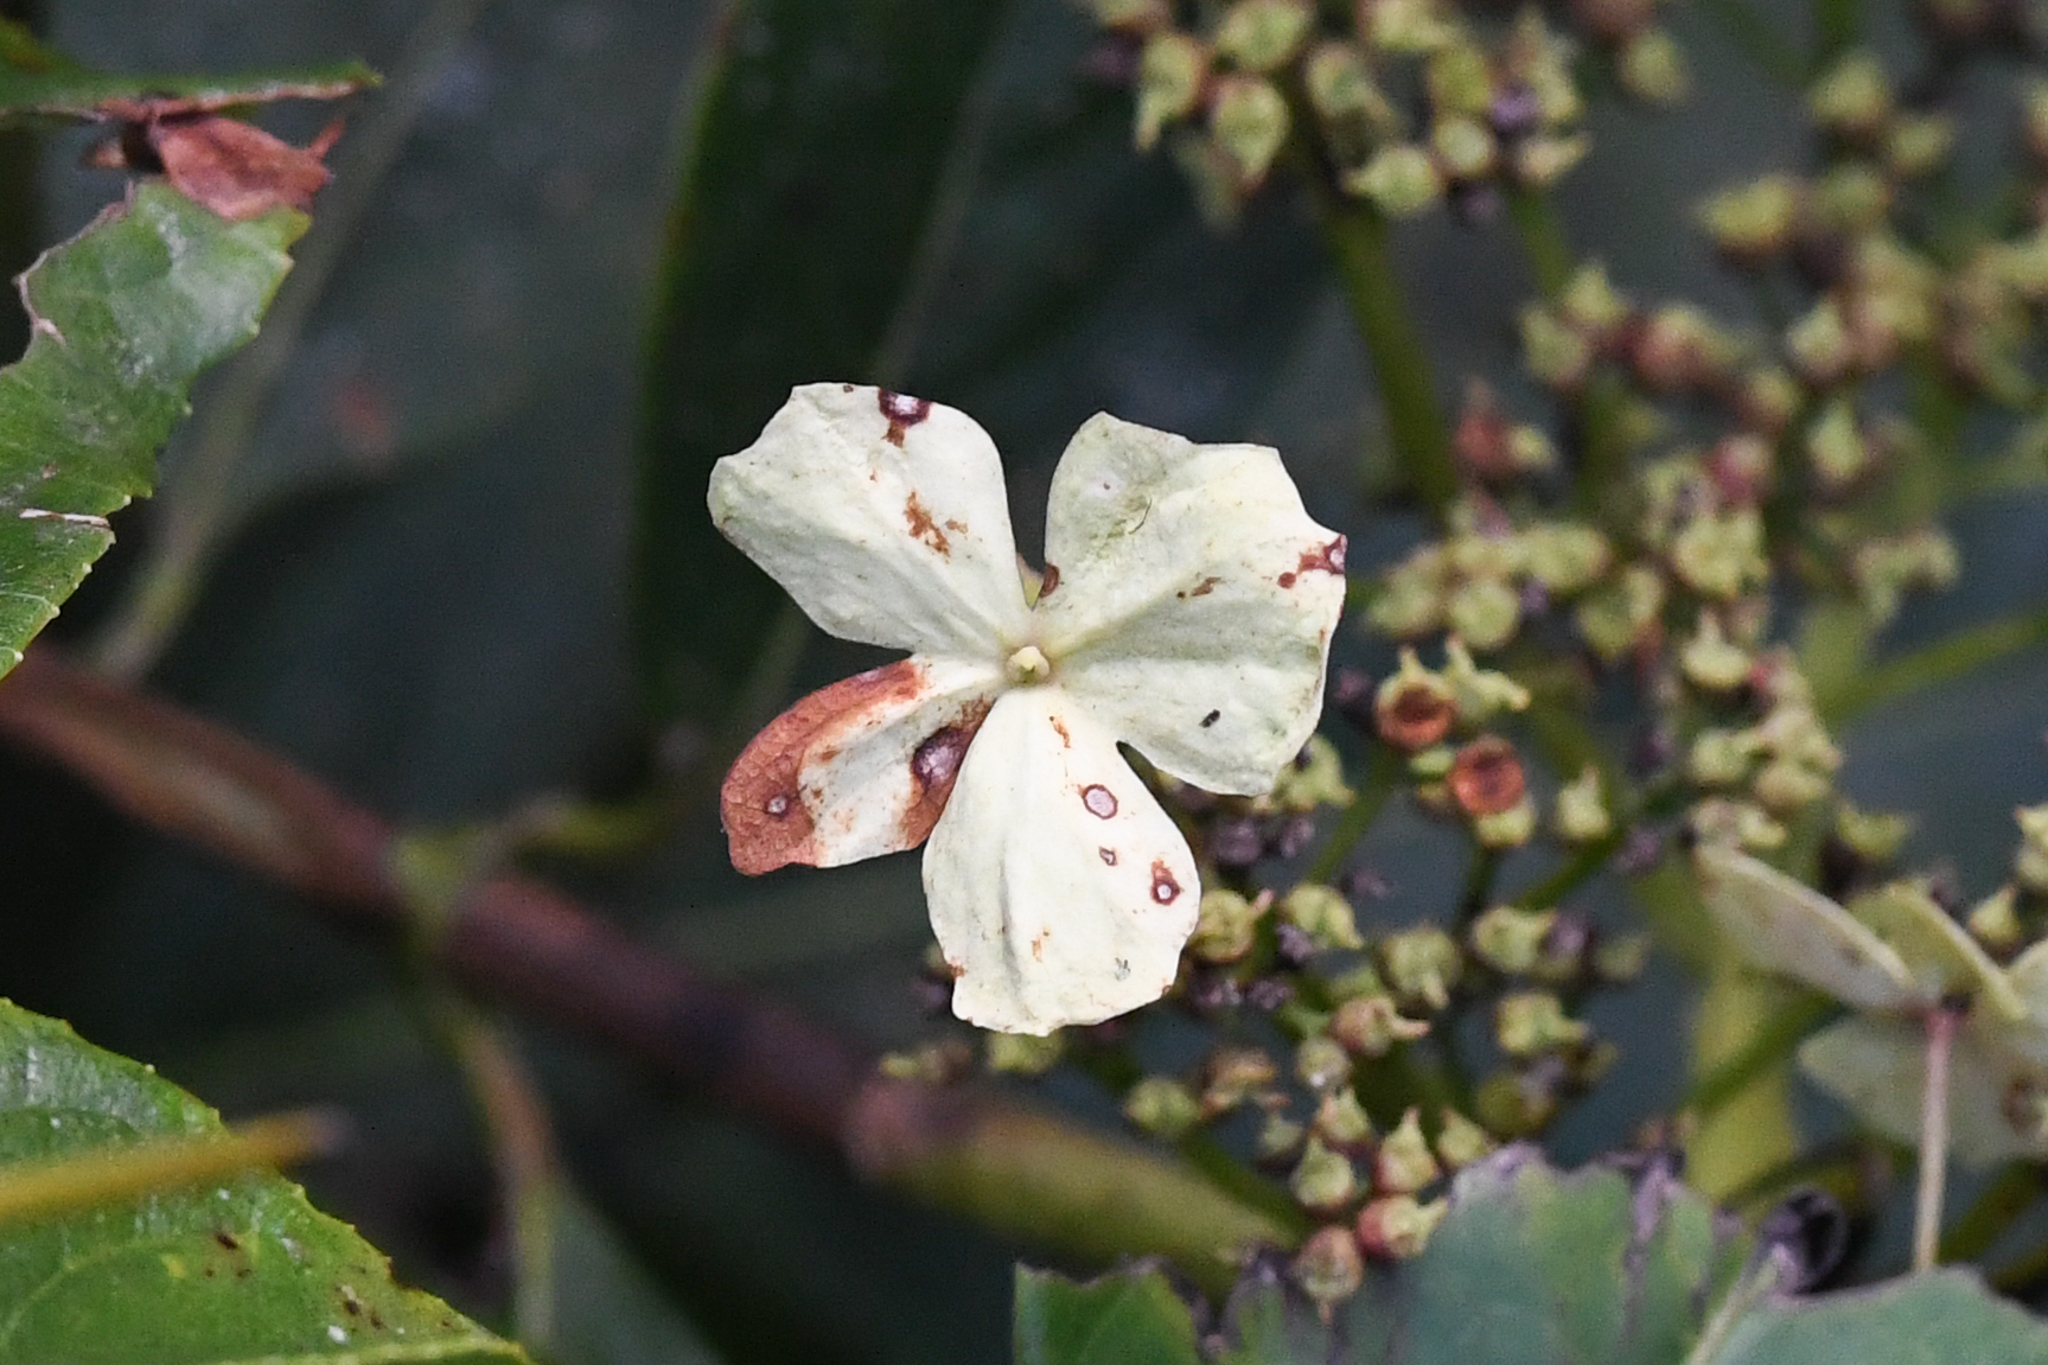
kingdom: Plantae
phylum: Tracheophyta
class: Magnoliopsida
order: Cornales
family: Hydrangeaceae
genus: Hydrangea
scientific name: Hydrangea steyermarkii
